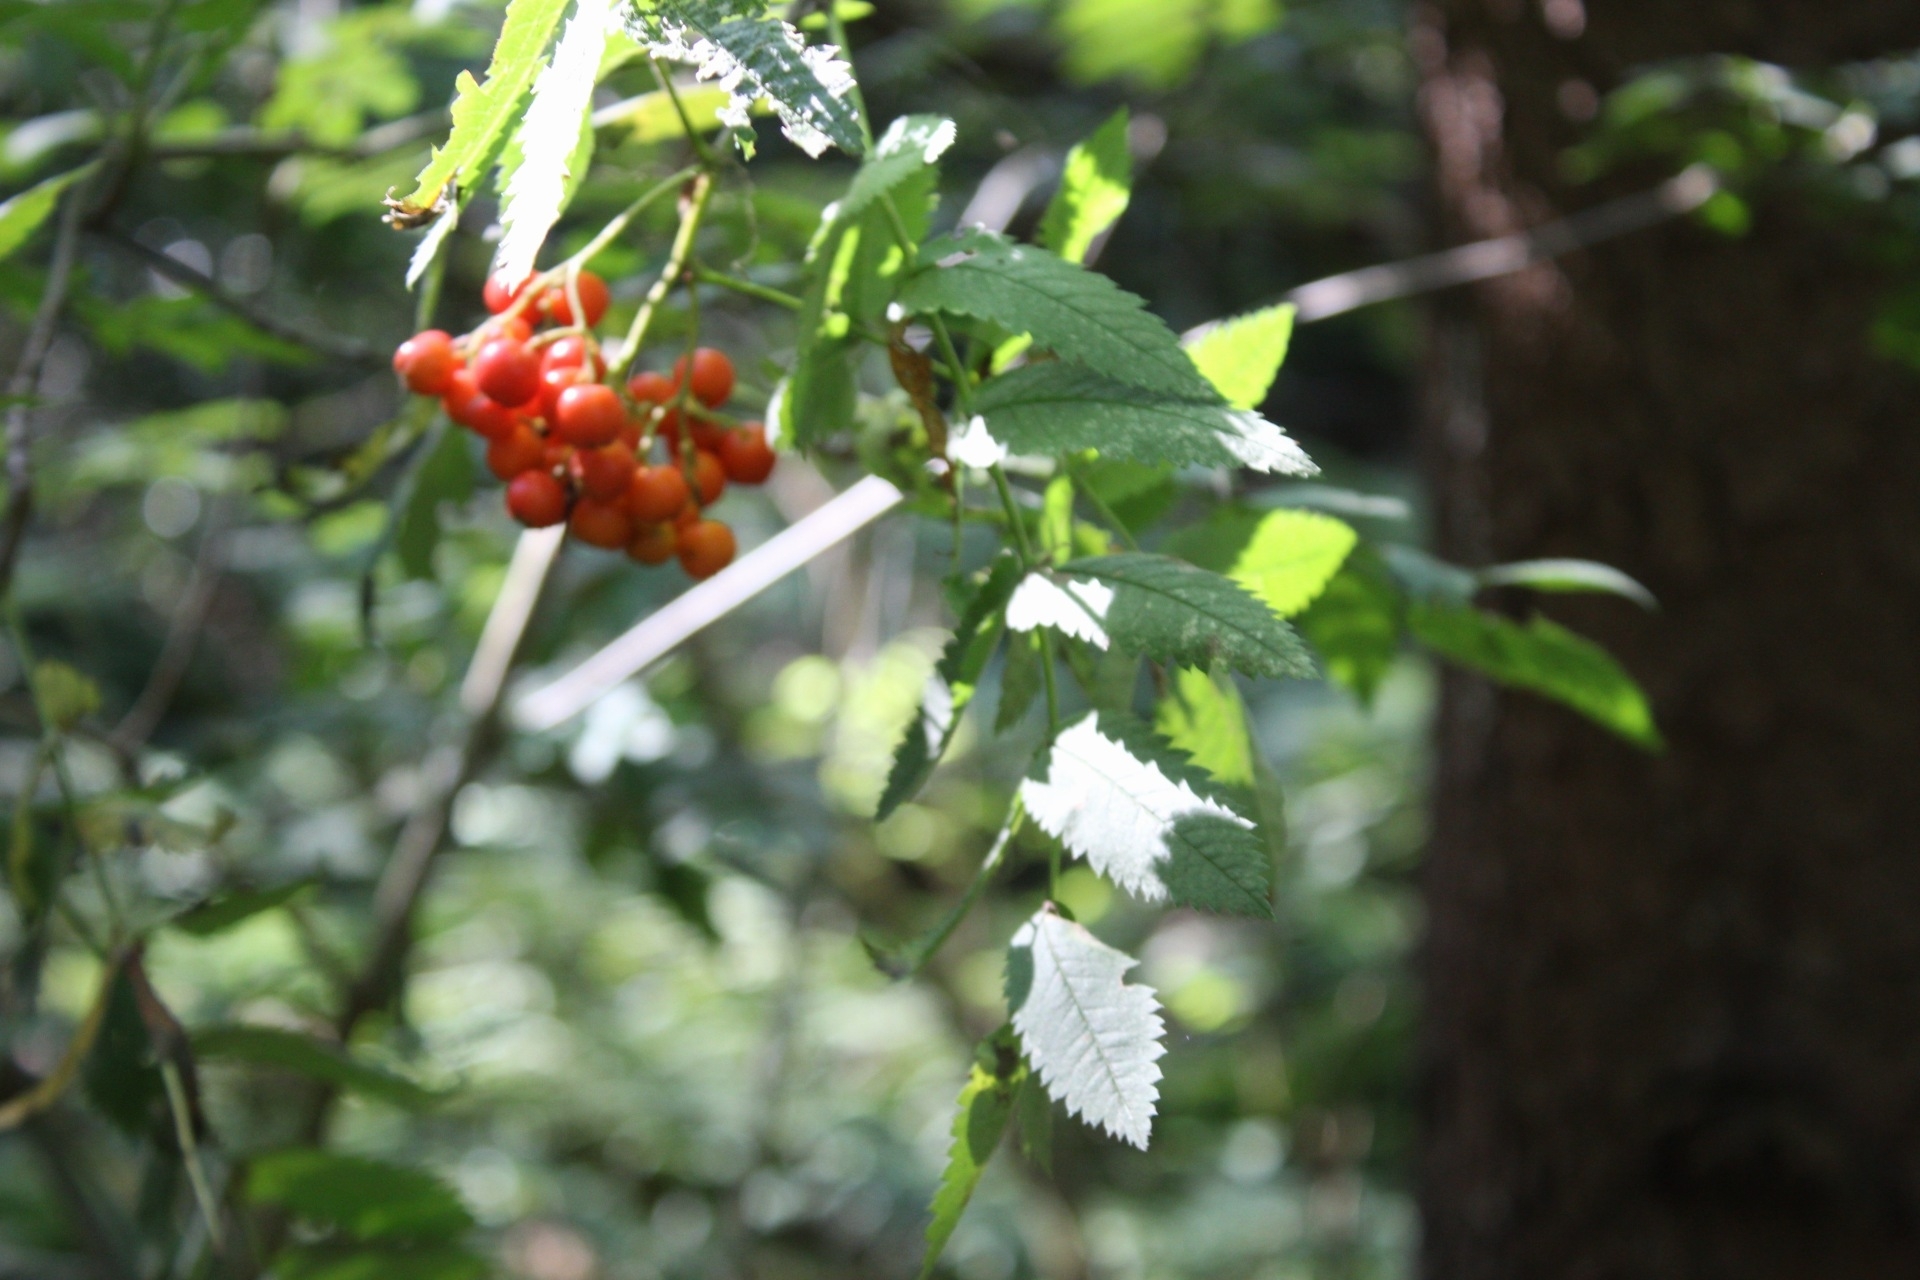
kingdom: Plantae
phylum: Tracheophyta
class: Magnoliopsida
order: Rosales
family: Rosaceae
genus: Sorbus
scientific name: Sorbus aucuparia
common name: Rowan
